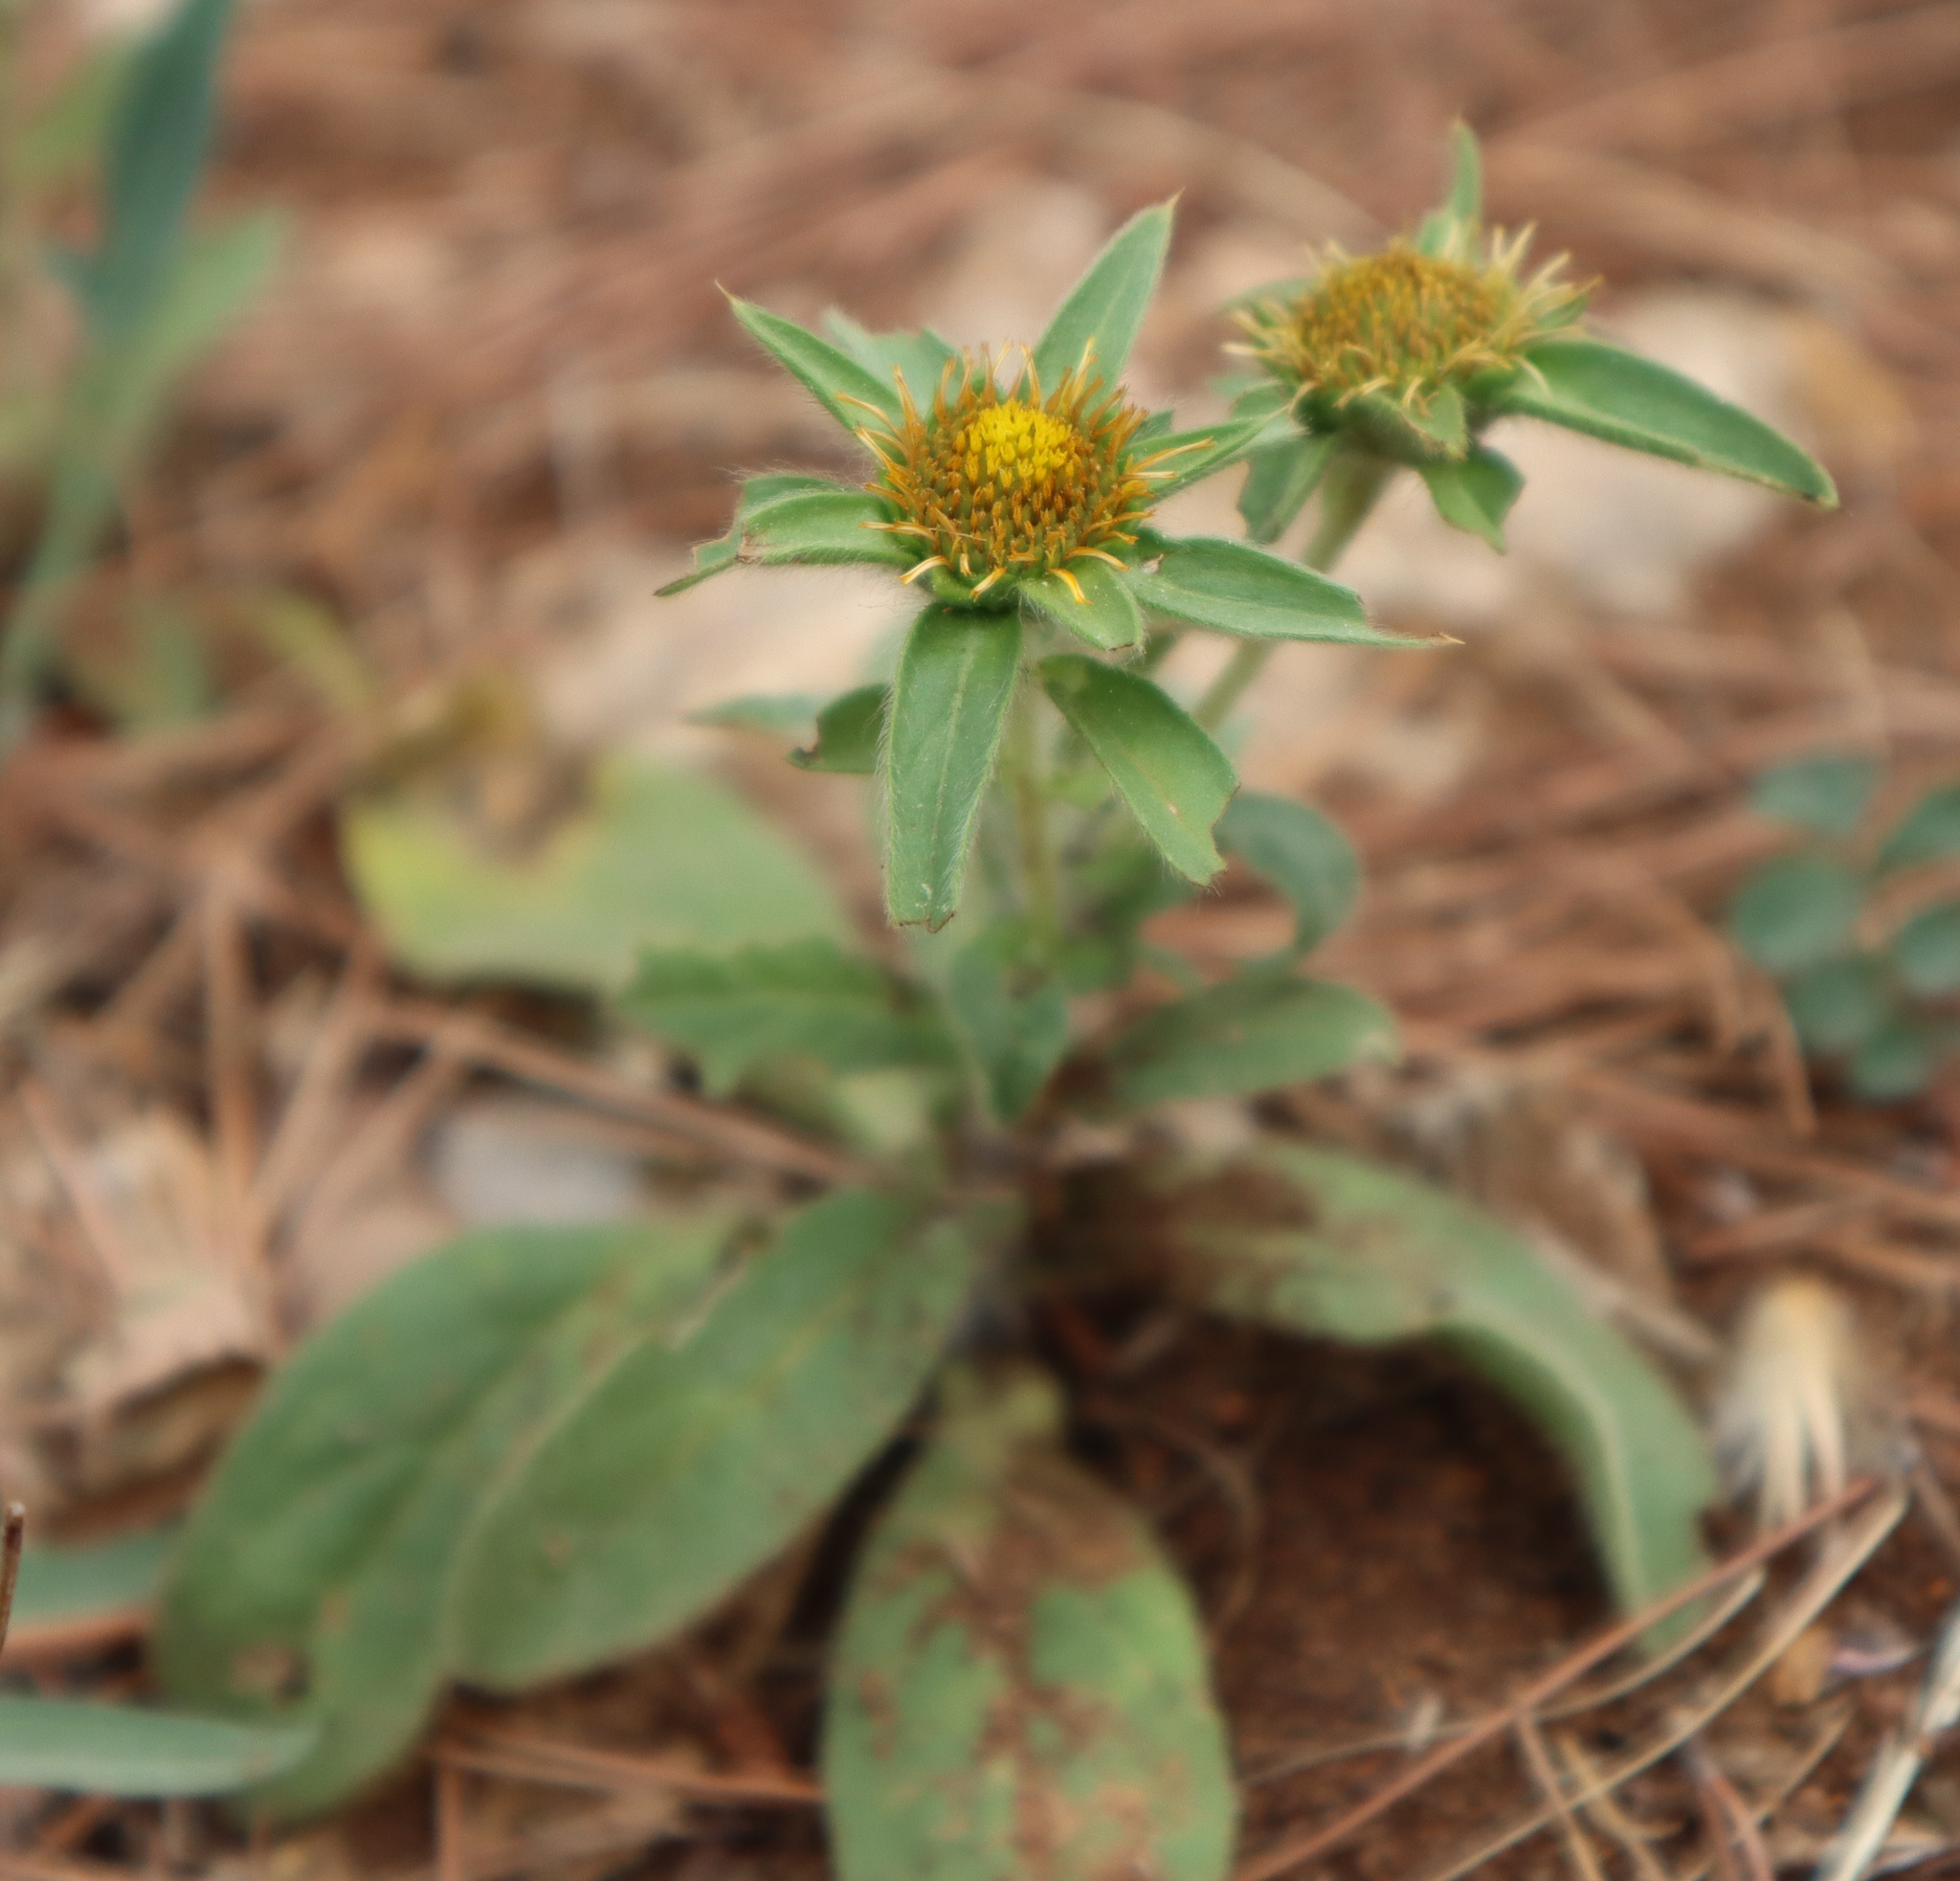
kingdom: Plantae
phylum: Tracheophyta
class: Magnoliopsida
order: Asterales
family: Asteraceae
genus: Pallenis
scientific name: Pallenis spinosa
